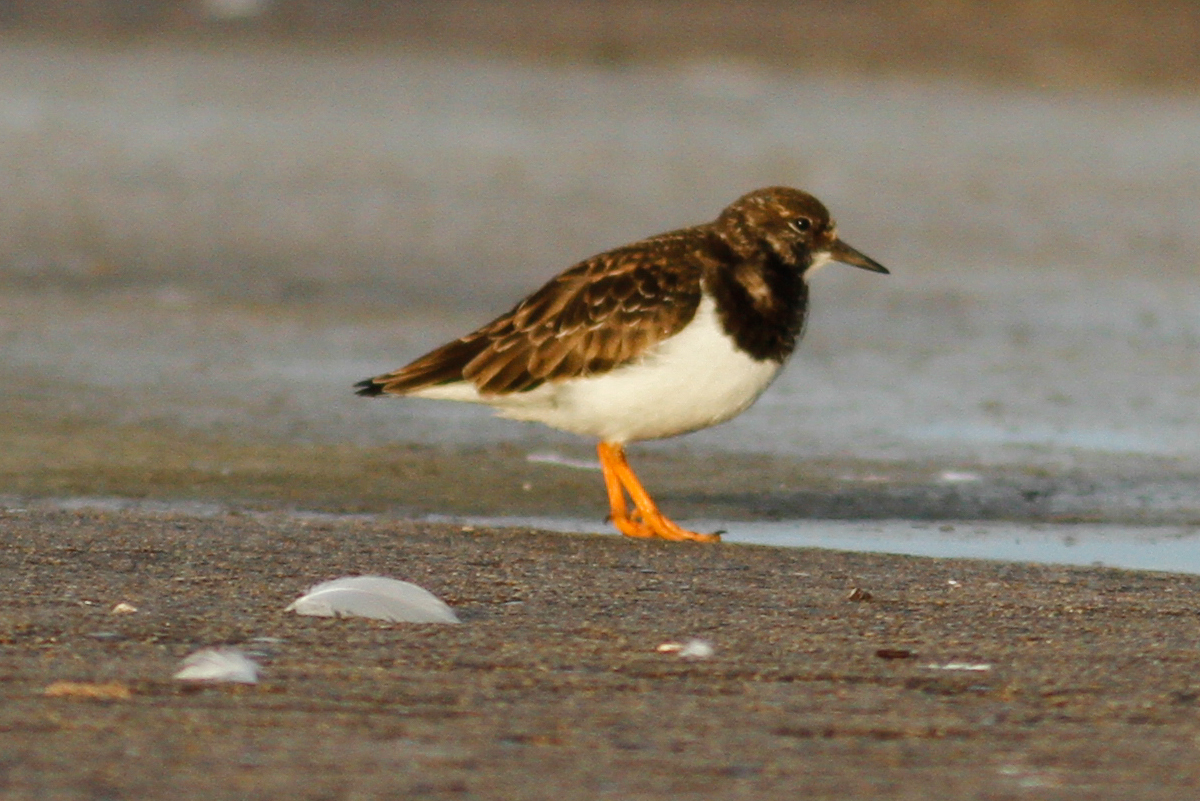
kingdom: Animalia
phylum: Chordata
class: Aves
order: Charadriiformes
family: Scolopacidae
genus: Arenaria
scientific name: Arenaria interpres
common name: Ruddy turnstone
